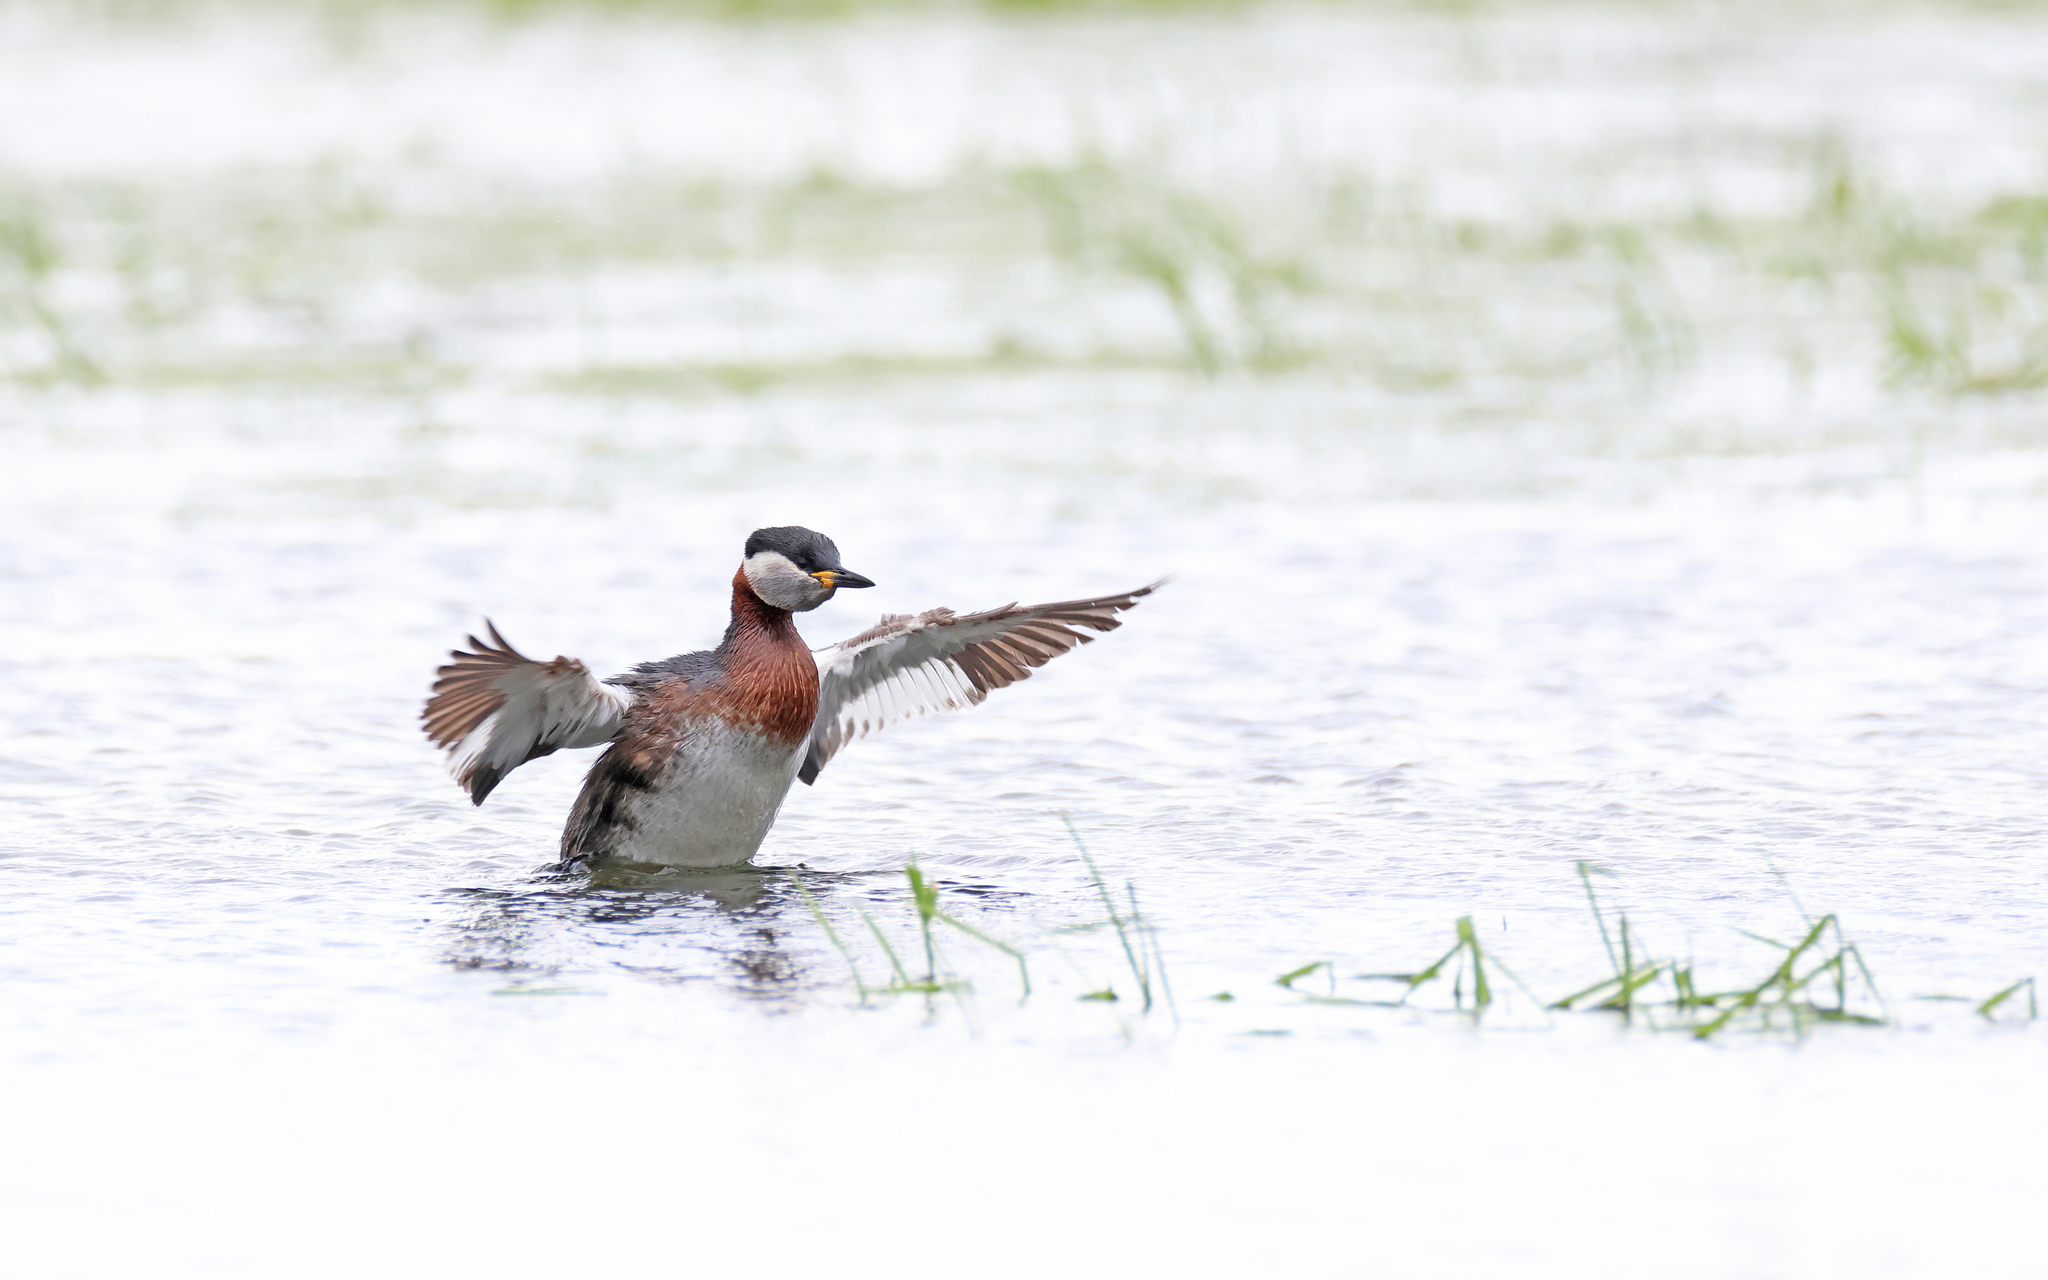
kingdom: Animalia
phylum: Chordata
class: Aves
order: Podicipediformes
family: Podicipedidae
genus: Podiceps
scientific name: Podiceps grisegena
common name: Red-necked grebe
